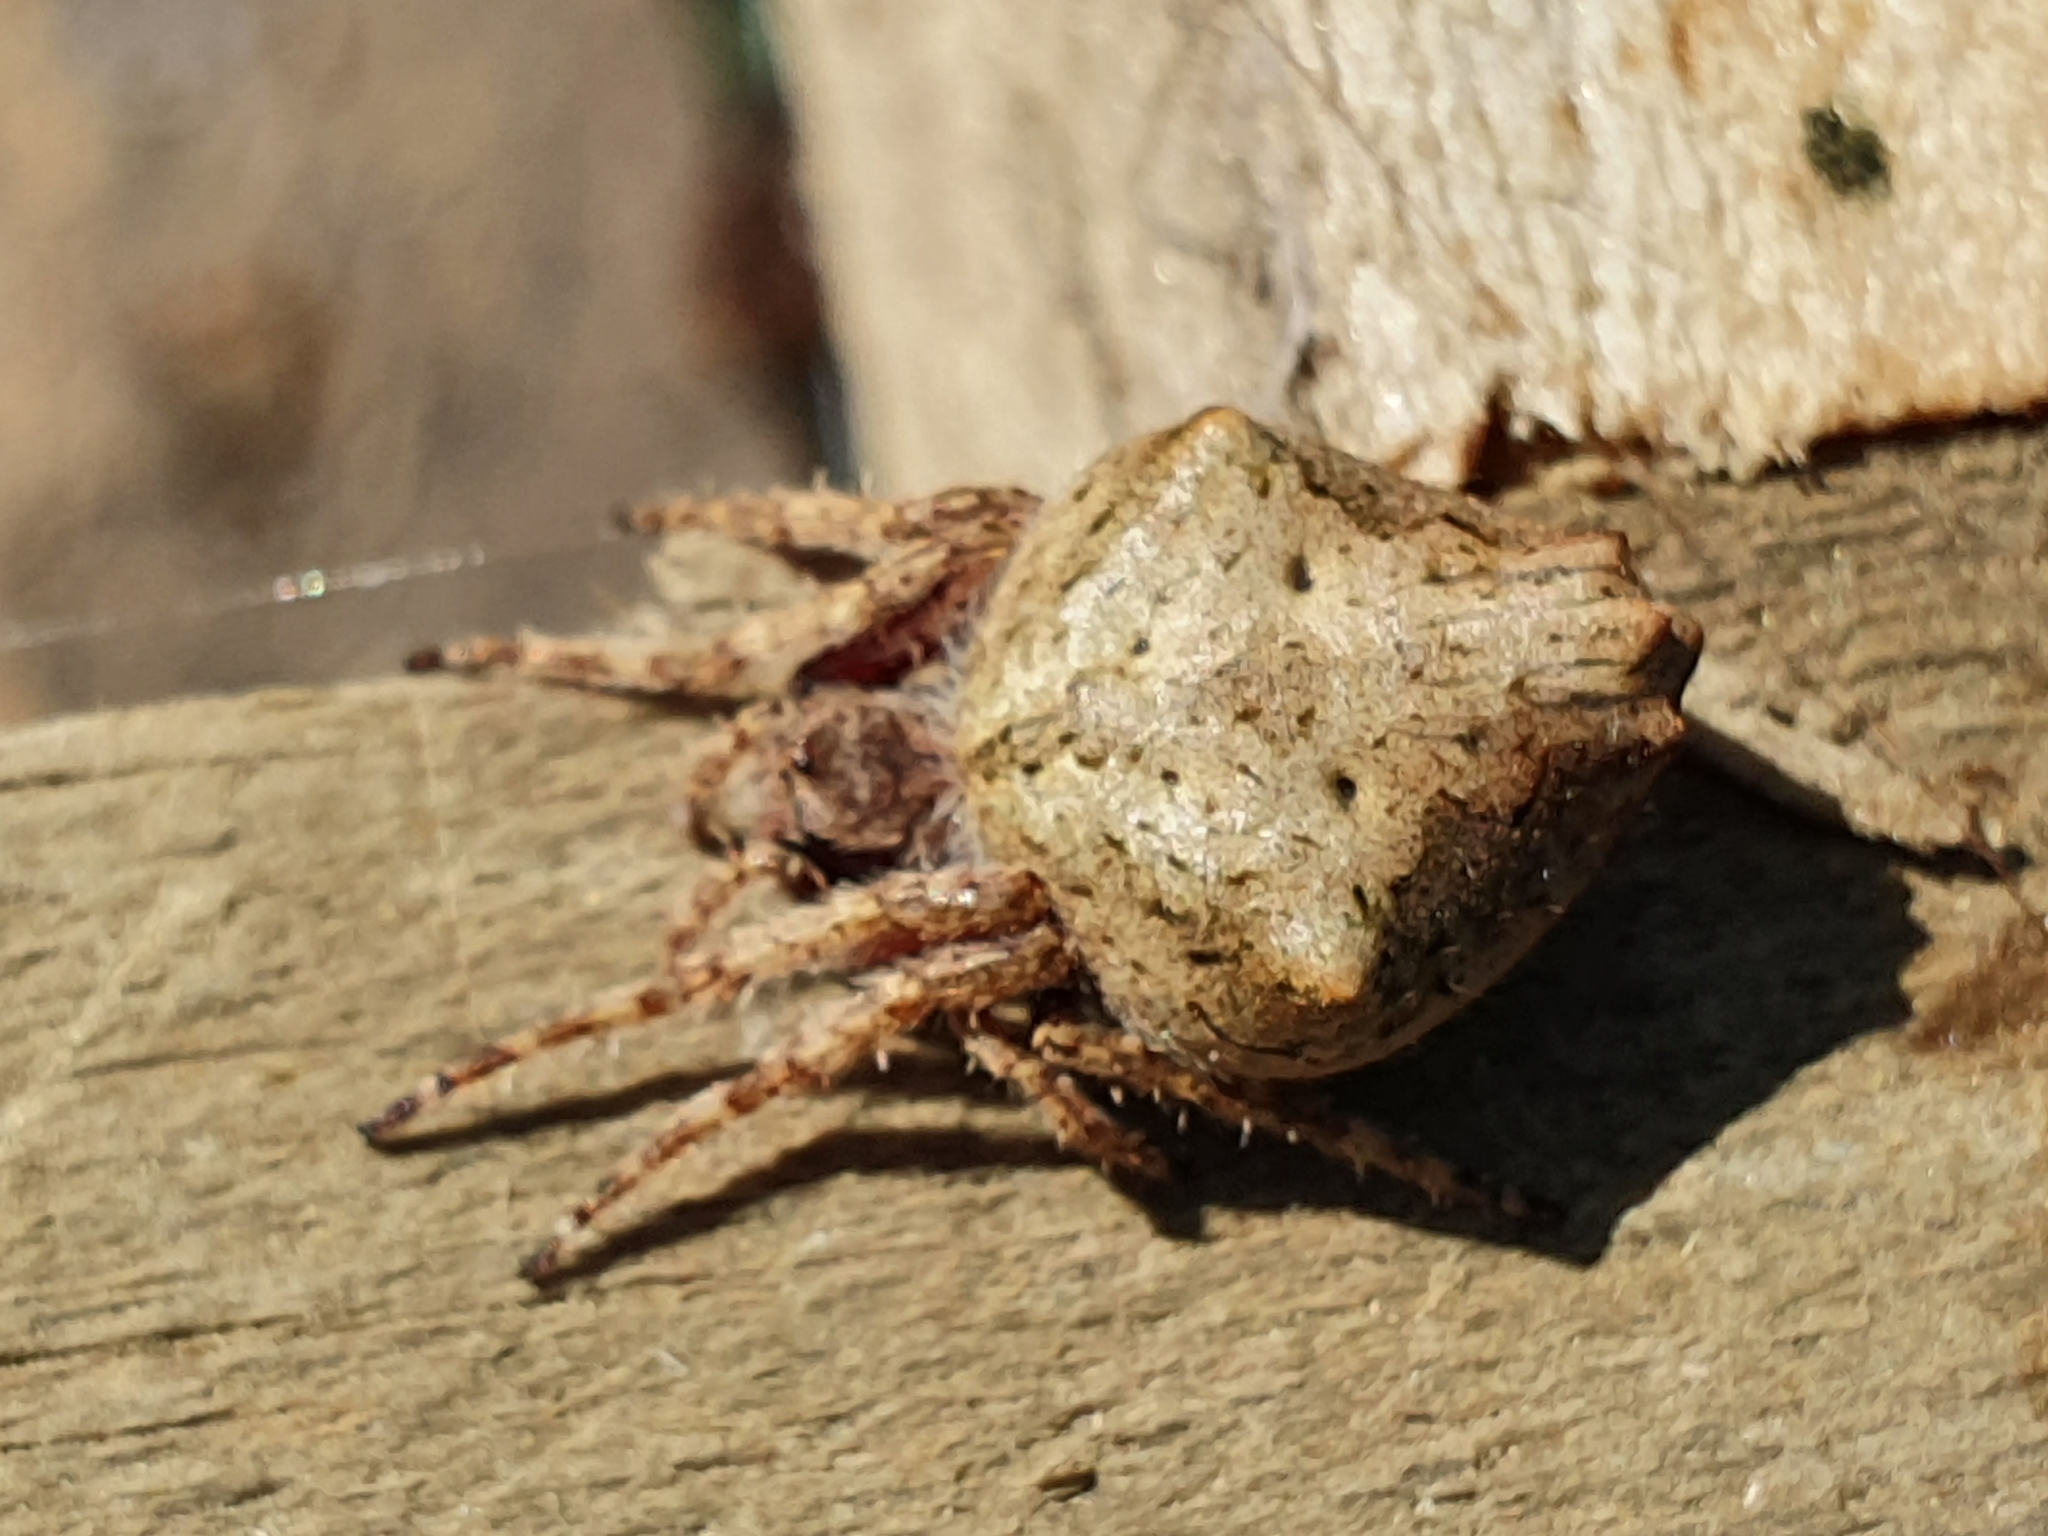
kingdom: Animalia
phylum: Arthropoda
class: Arachnida
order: Araneae
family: Araneidae
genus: Eriophora
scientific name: Eriophora pustulosa
